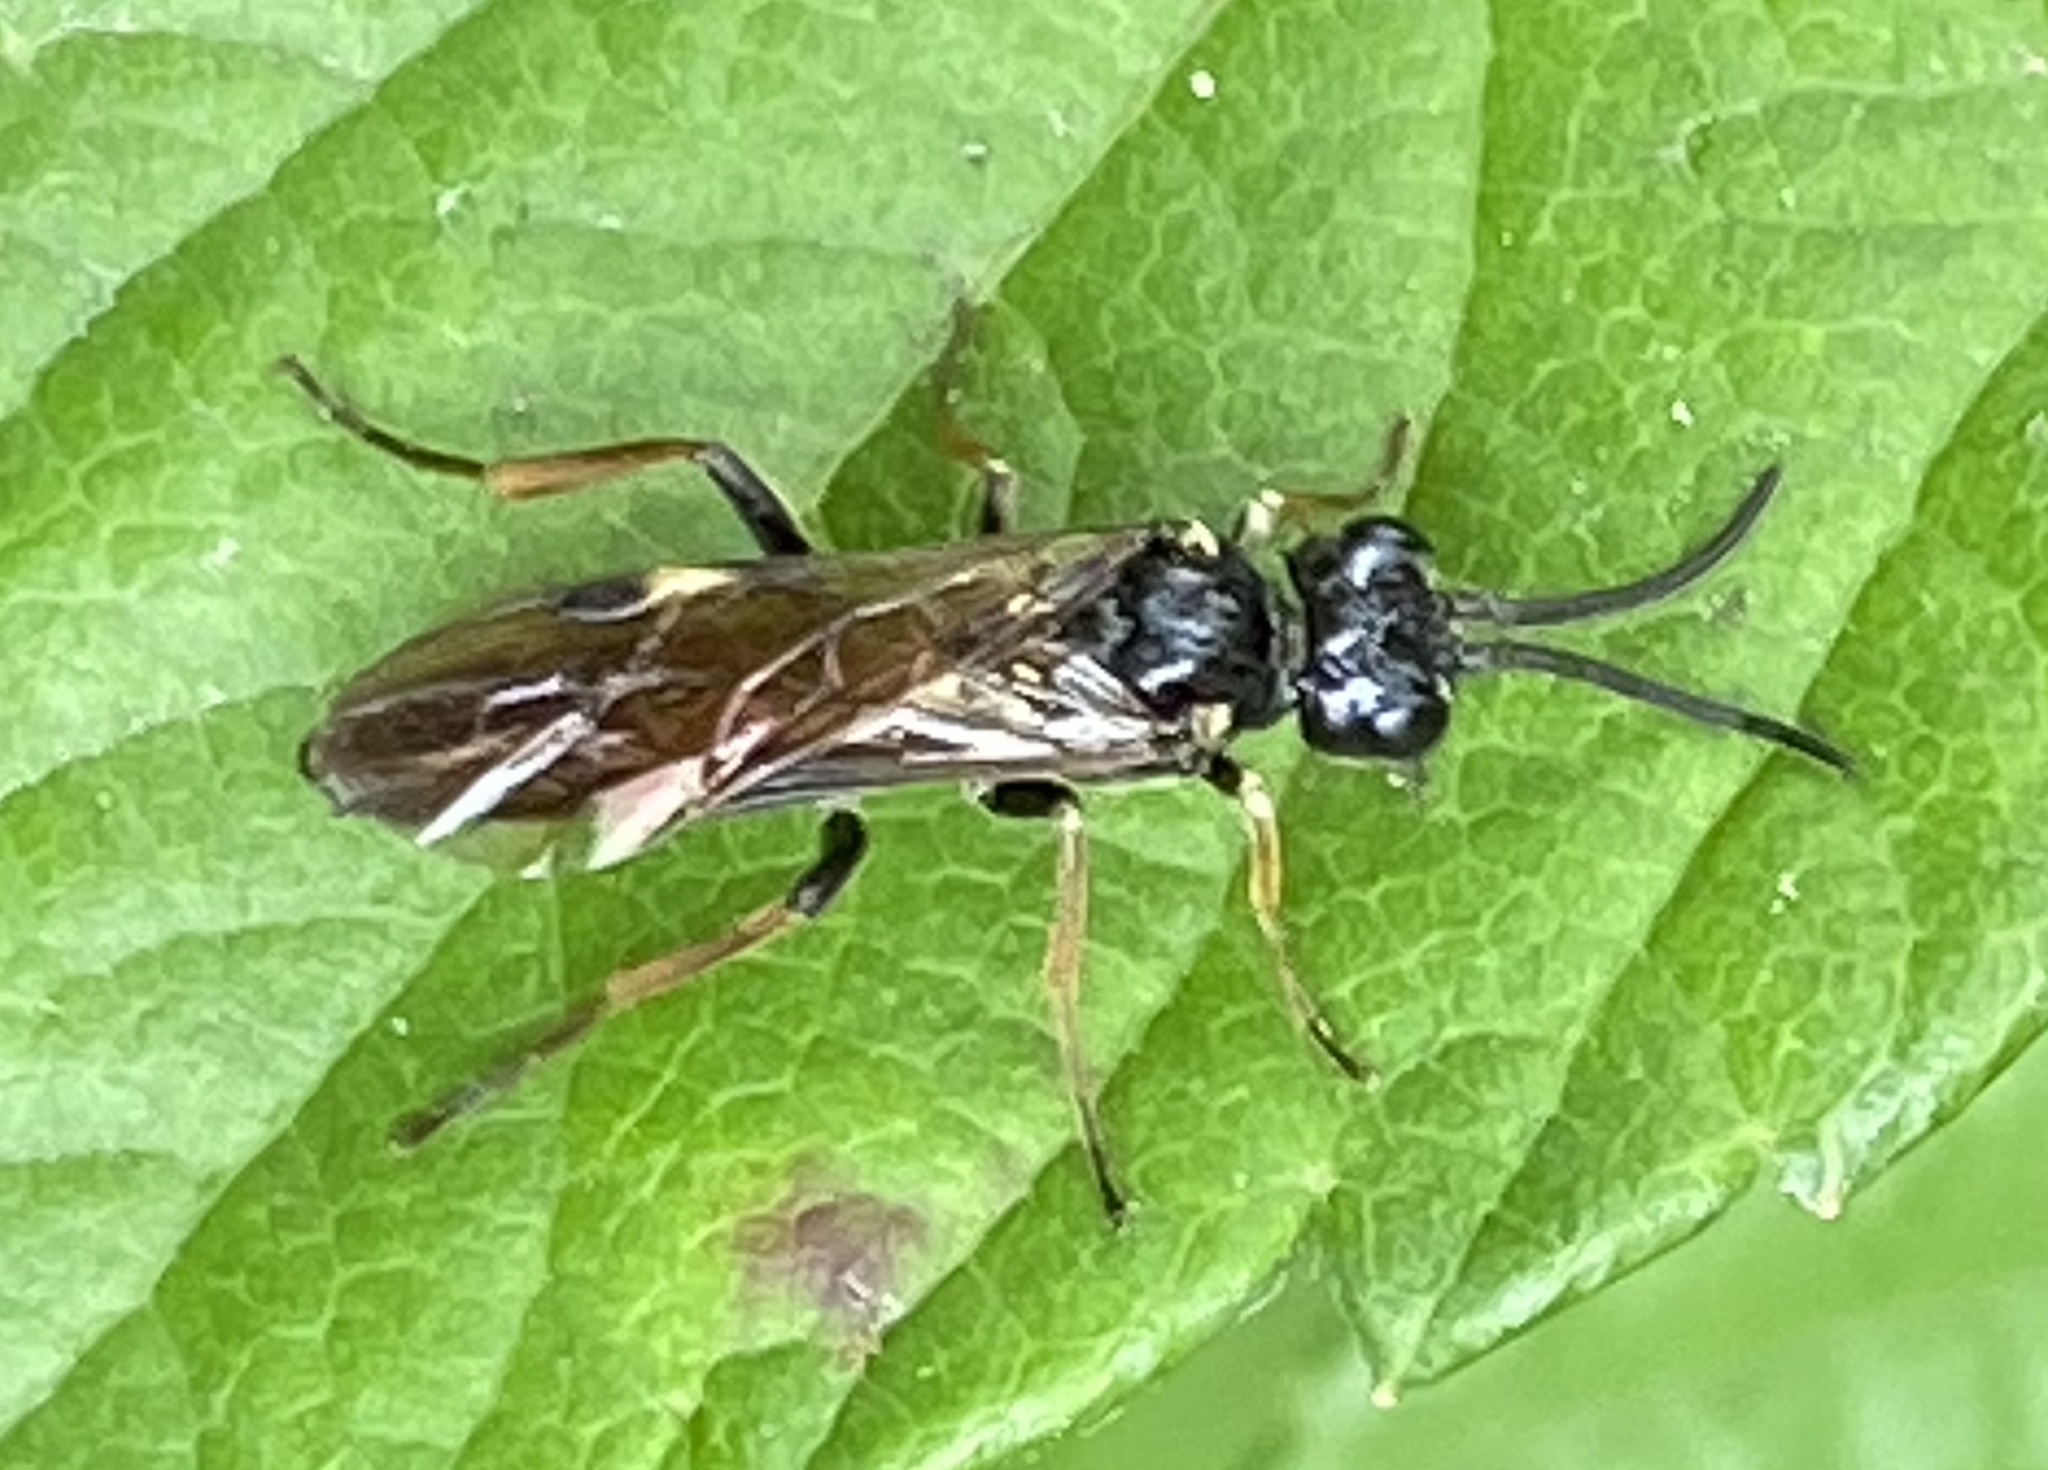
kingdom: Animalia
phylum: Arthropoda
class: Insecta
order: Hymenoptera
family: Tenthredinidae
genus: Allantus
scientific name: Allantus cinctus
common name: Curled rose sawfly
